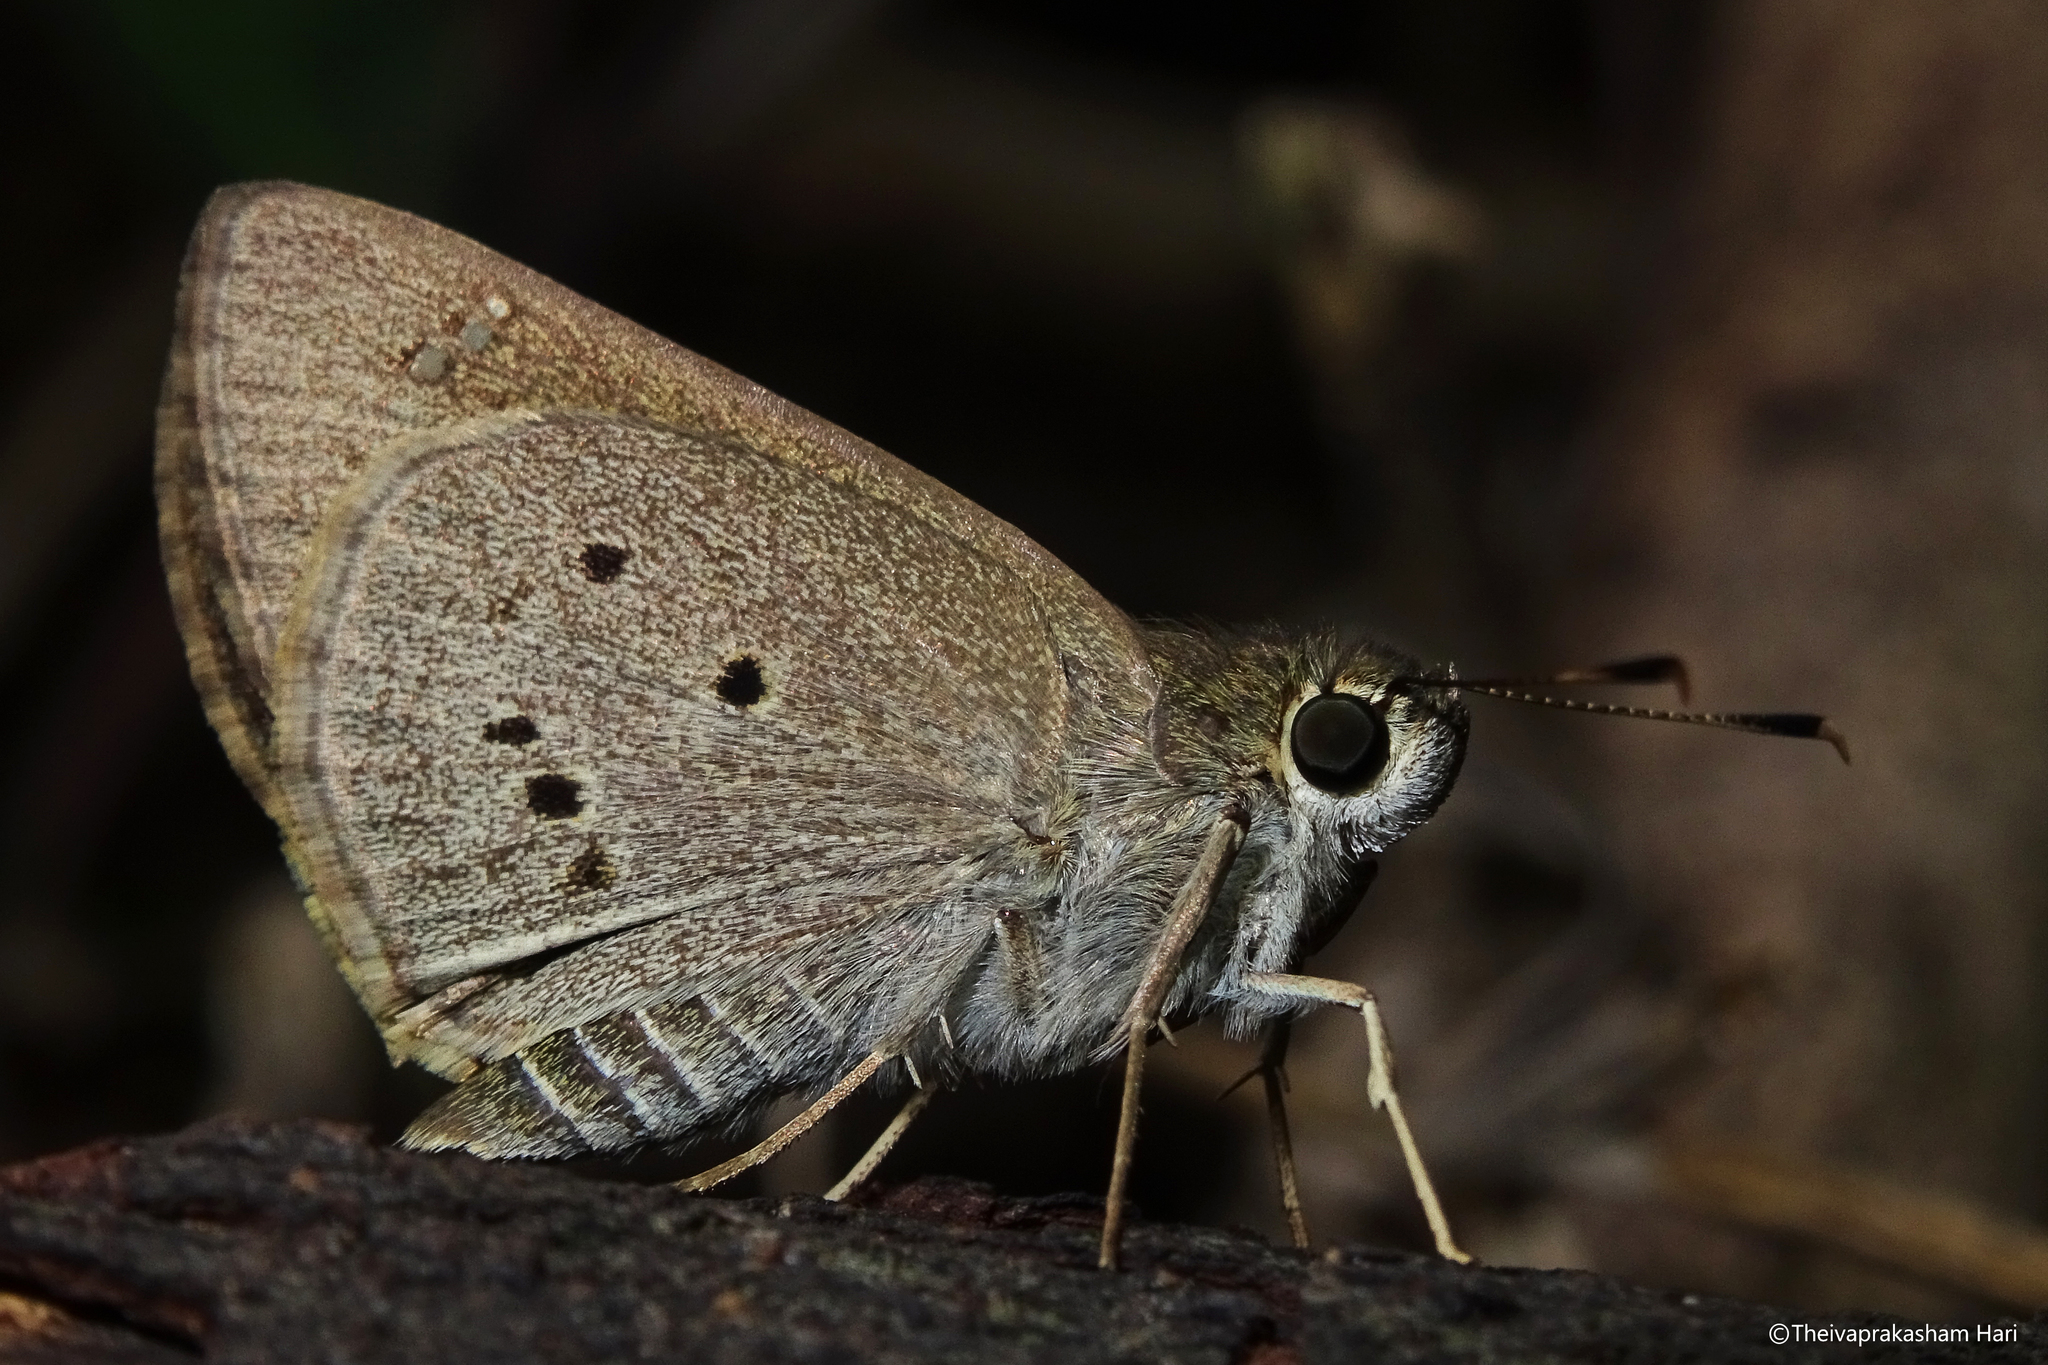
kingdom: Animalia
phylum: Arthropoda
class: Insecta
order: Lepidoptera
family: Hesperiidae
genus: Suastus
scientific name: Suastus gremius
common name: Indian palm bob
